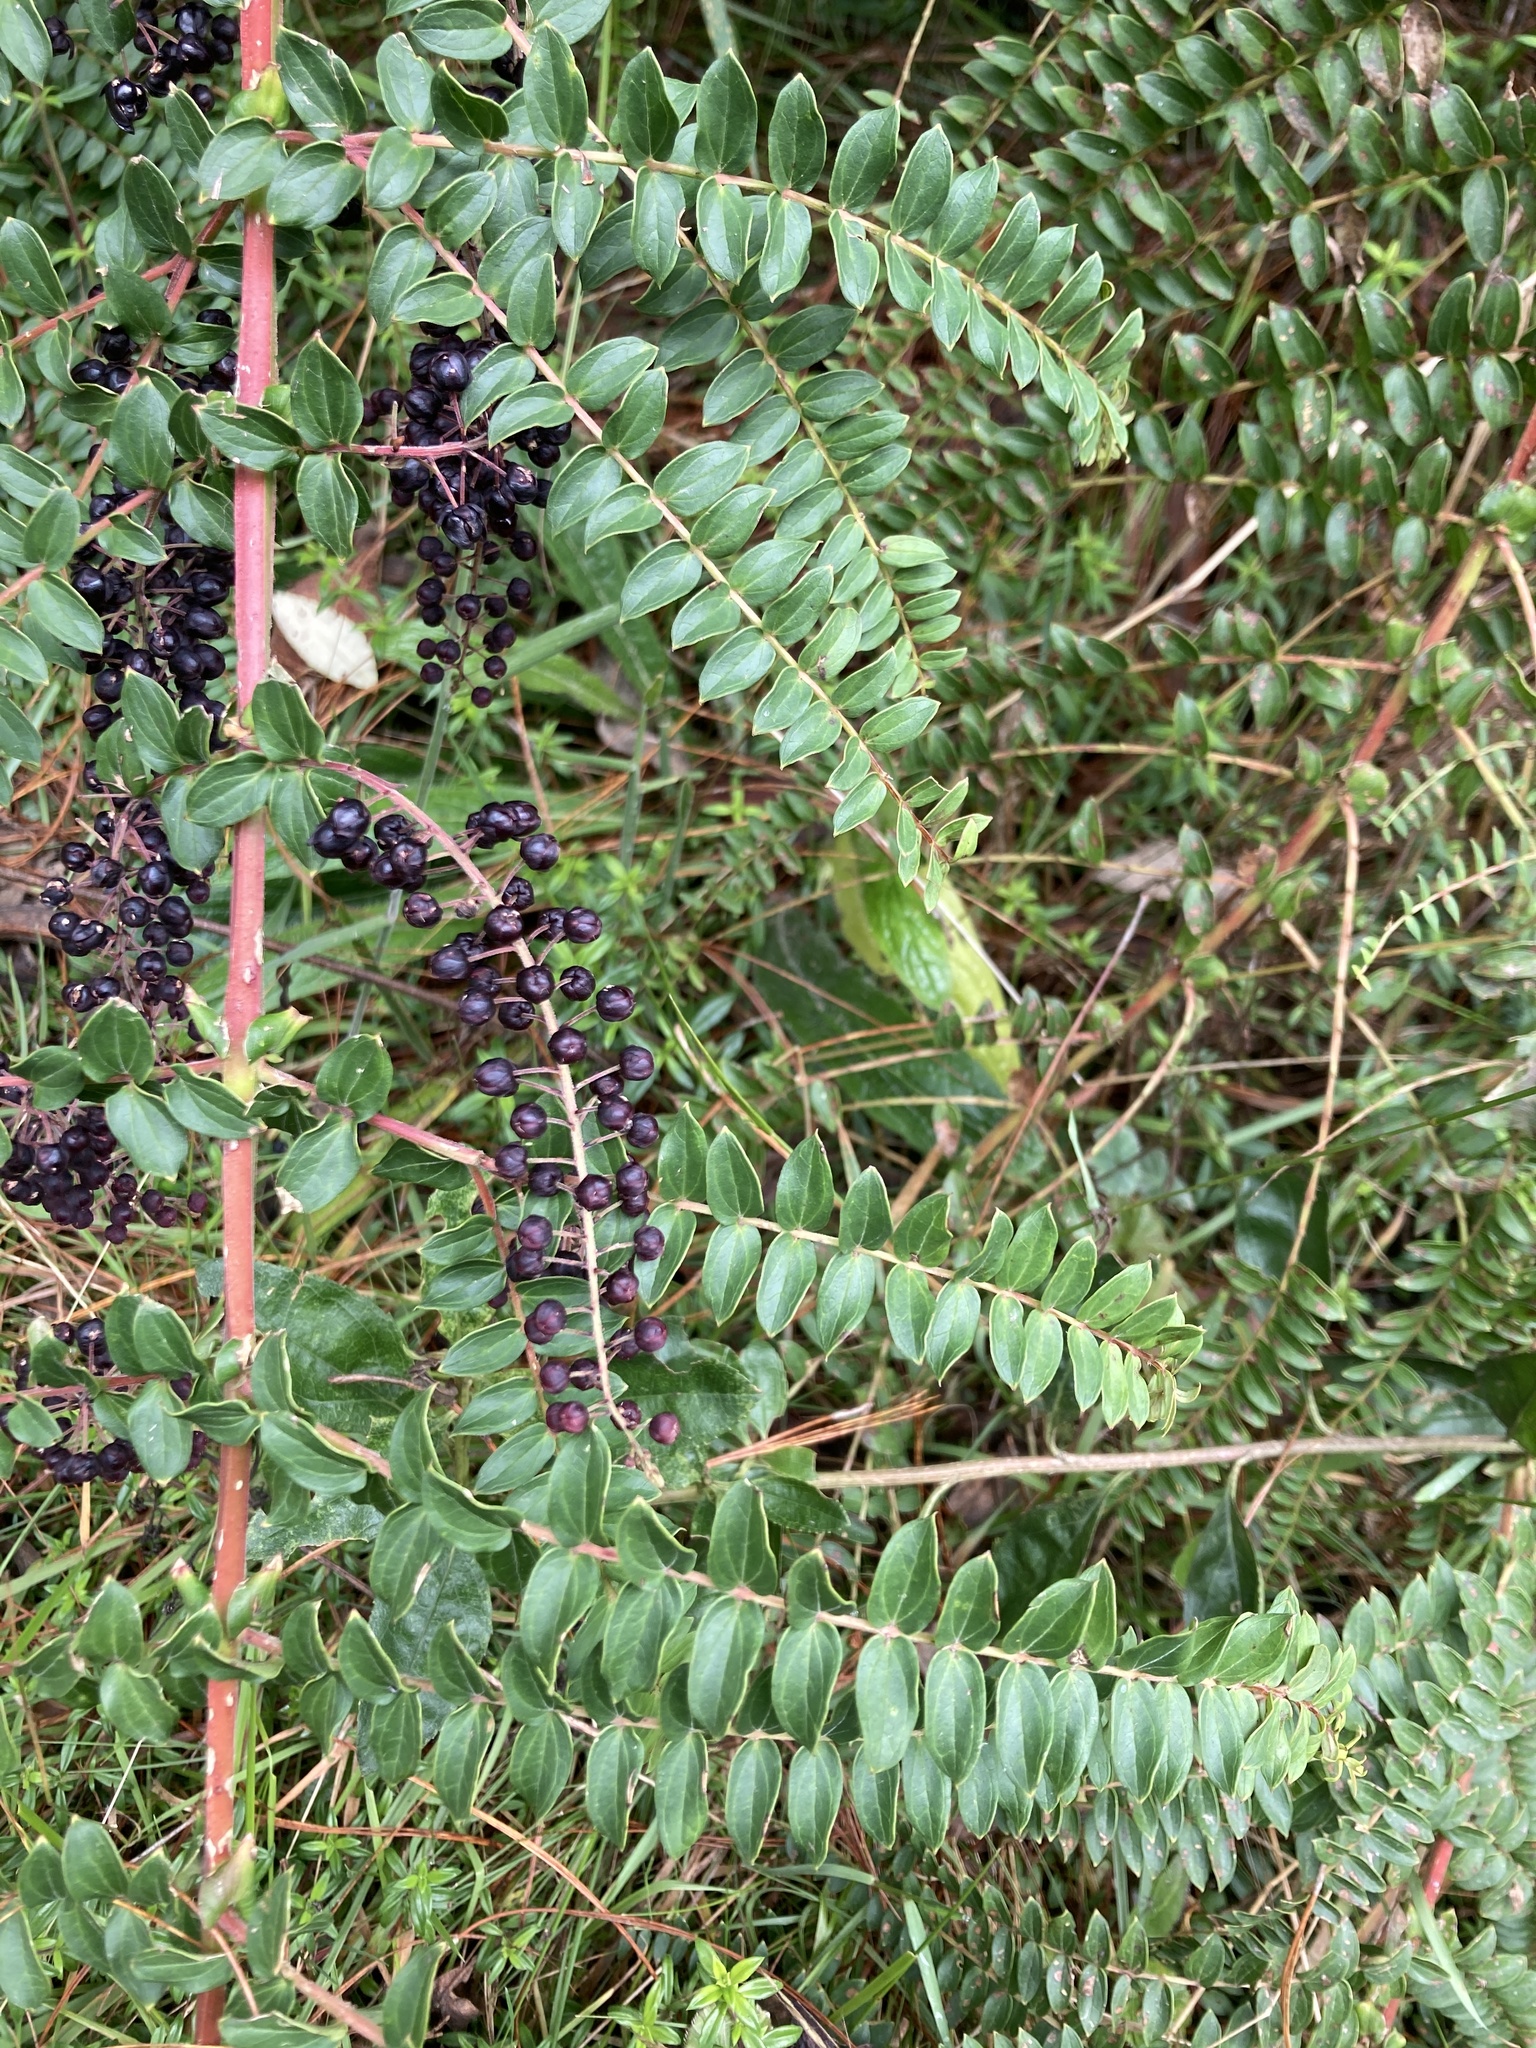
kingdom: Plantae
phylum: Tracheophyta
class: Magnoliopsida
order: Cucurbitales
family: Coriariaceae
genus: Coriaria
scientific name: Coriaria ruscifolia
